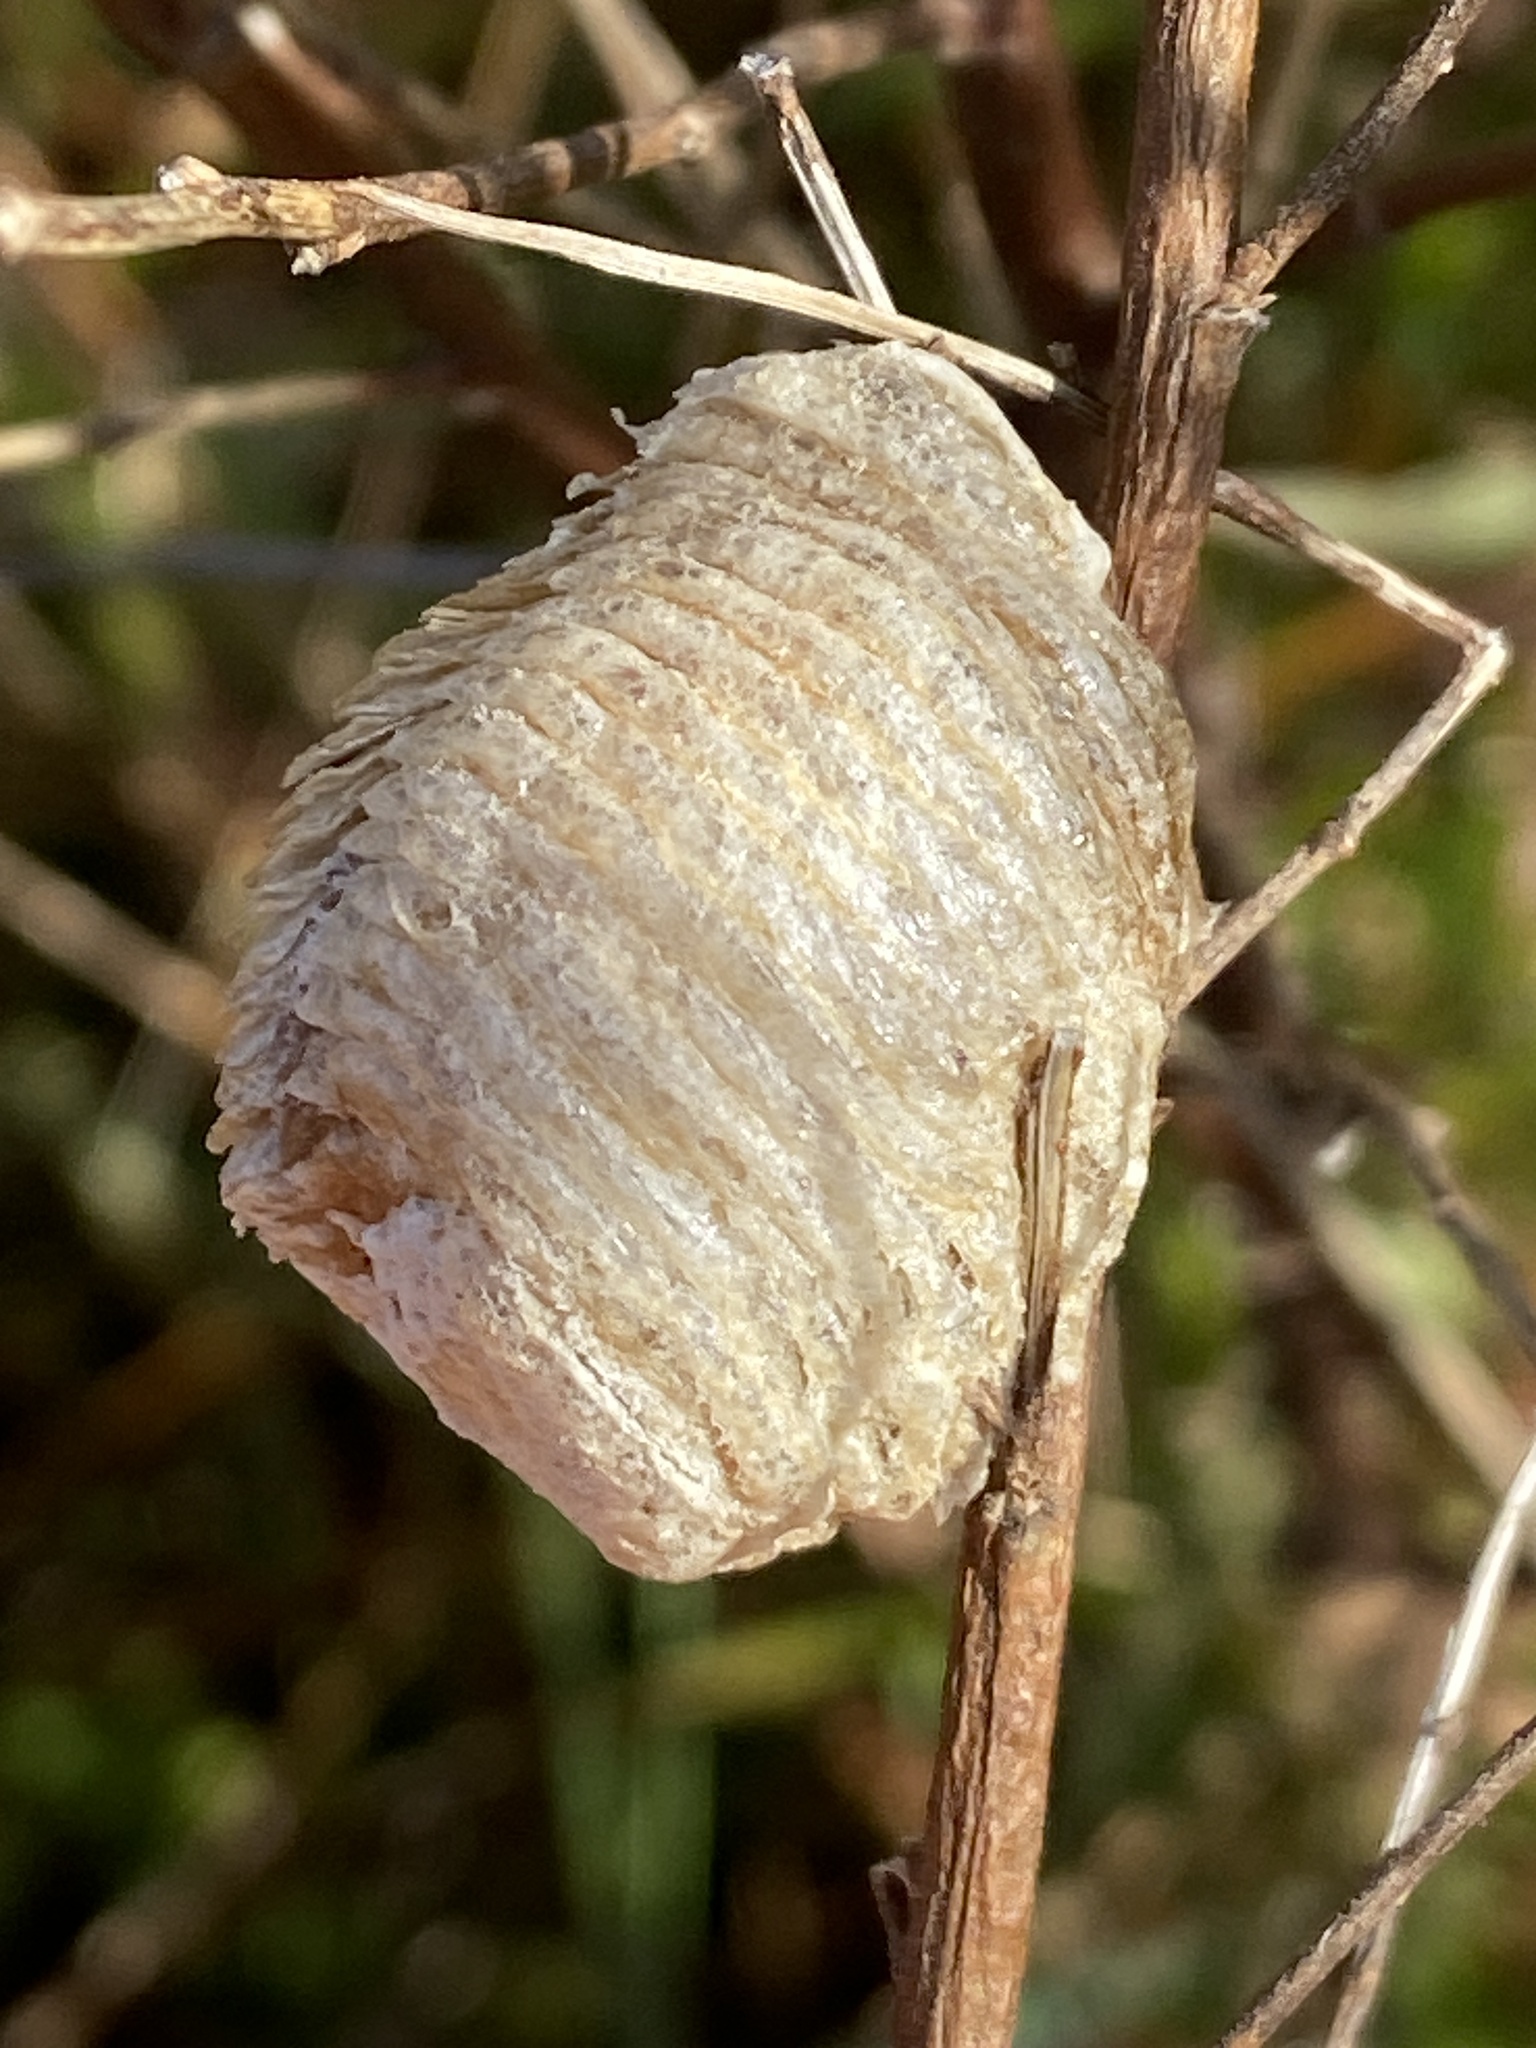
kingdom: Animalia
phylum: Arthropoda
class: Insecta
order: Mantodea
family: Mantidae
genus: Sphodromantis
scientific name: Sphodromantis viridis
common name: Giant african mantis
